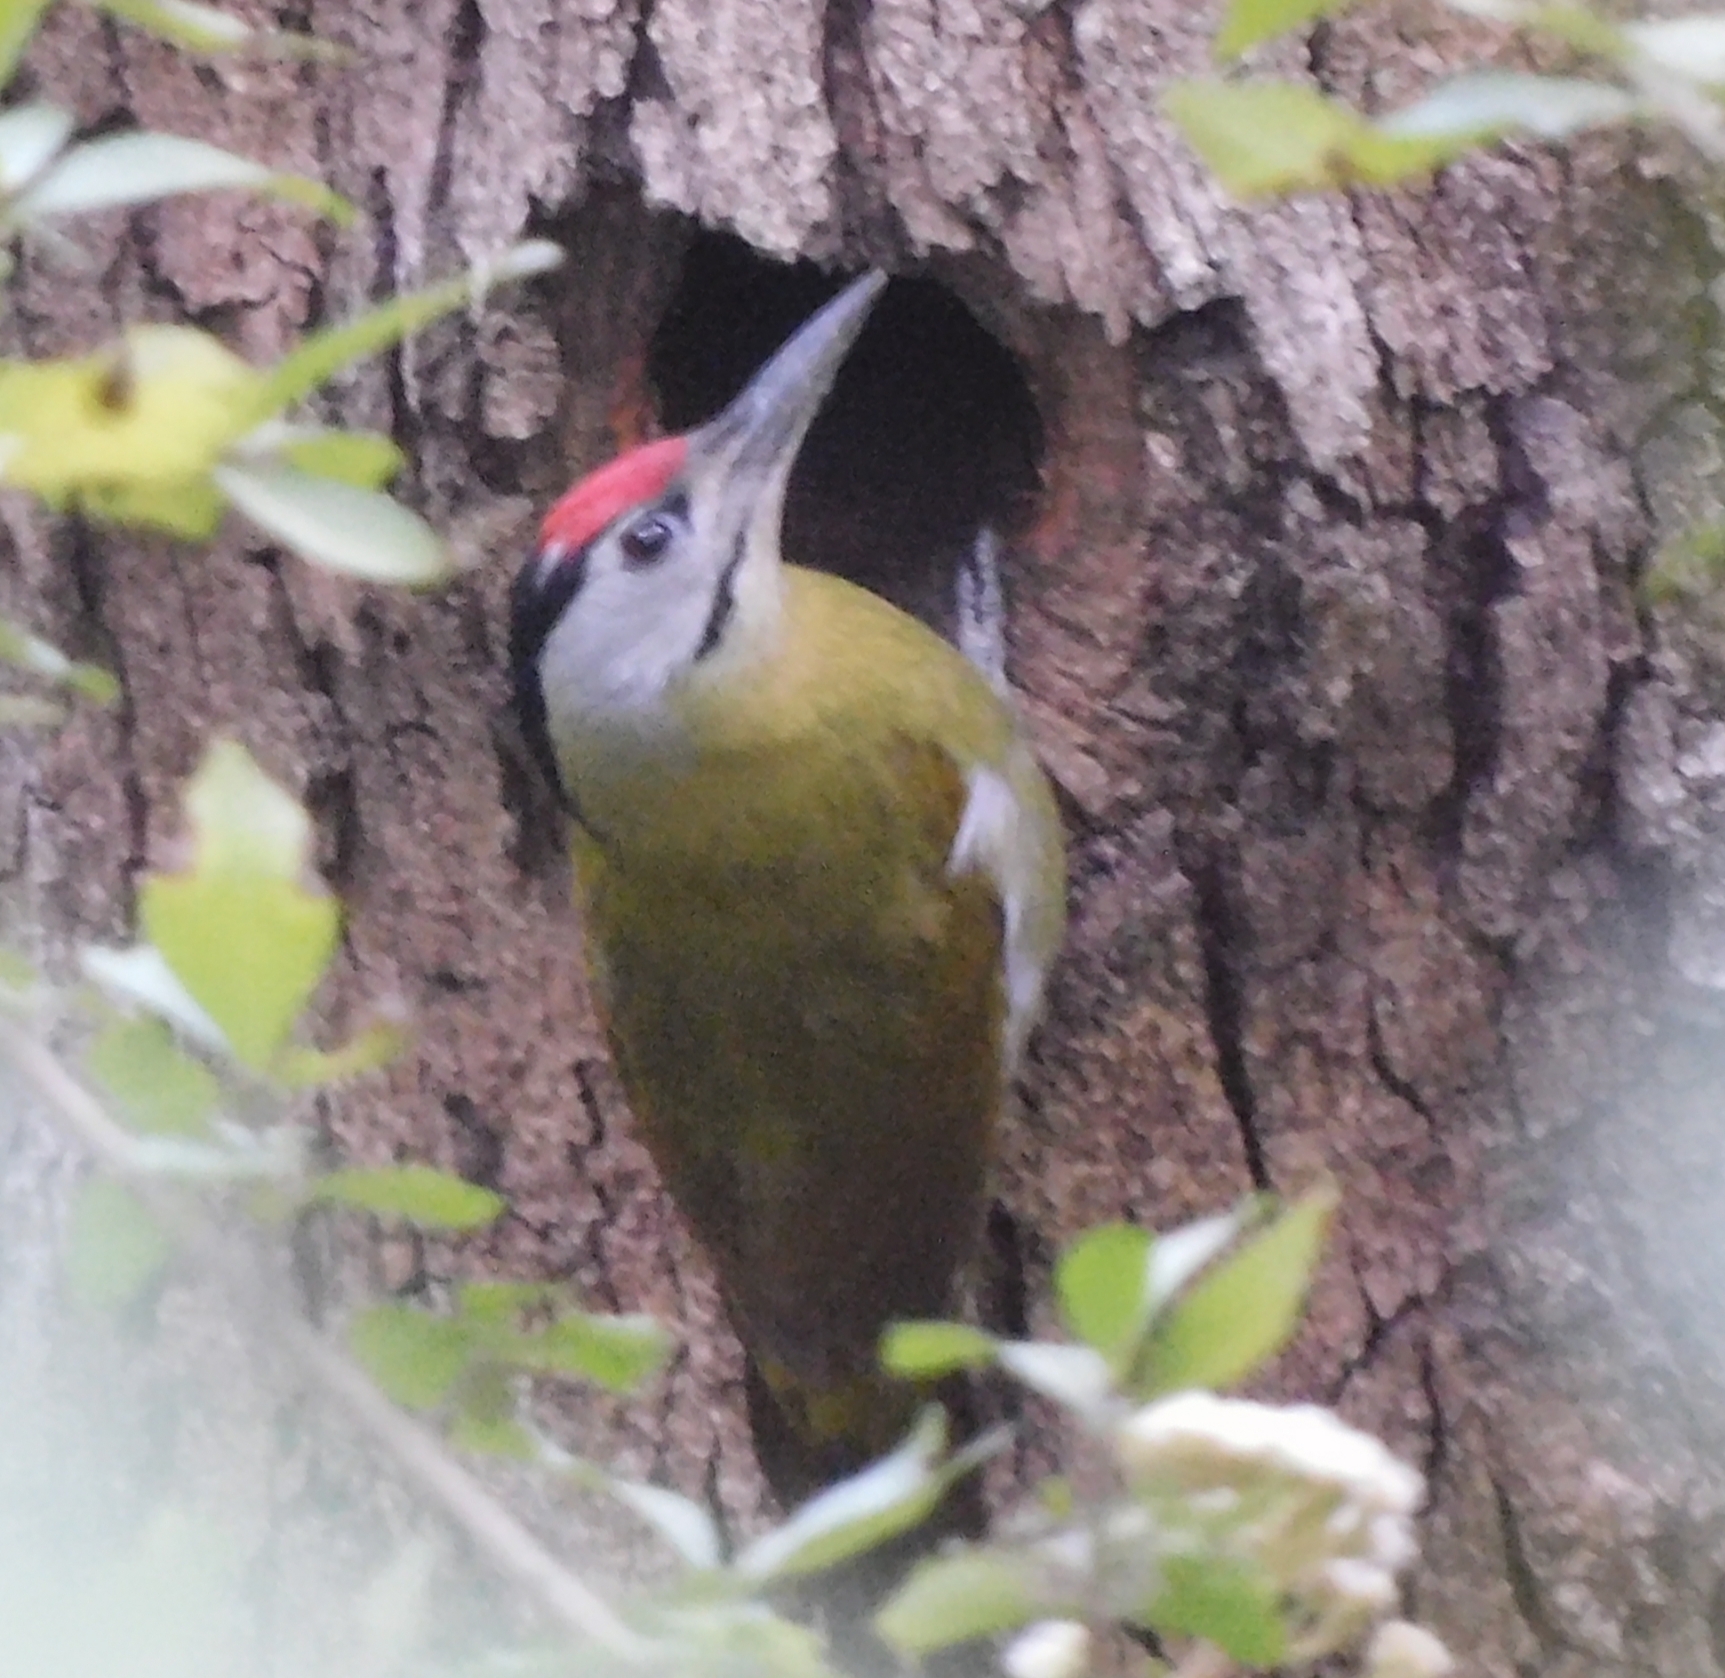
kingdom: Animalia
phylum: Chordata
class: Aves
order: Piciformes
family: Picidae
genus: Picus
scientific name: Picus canus
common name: Grey-headed woodpecker
